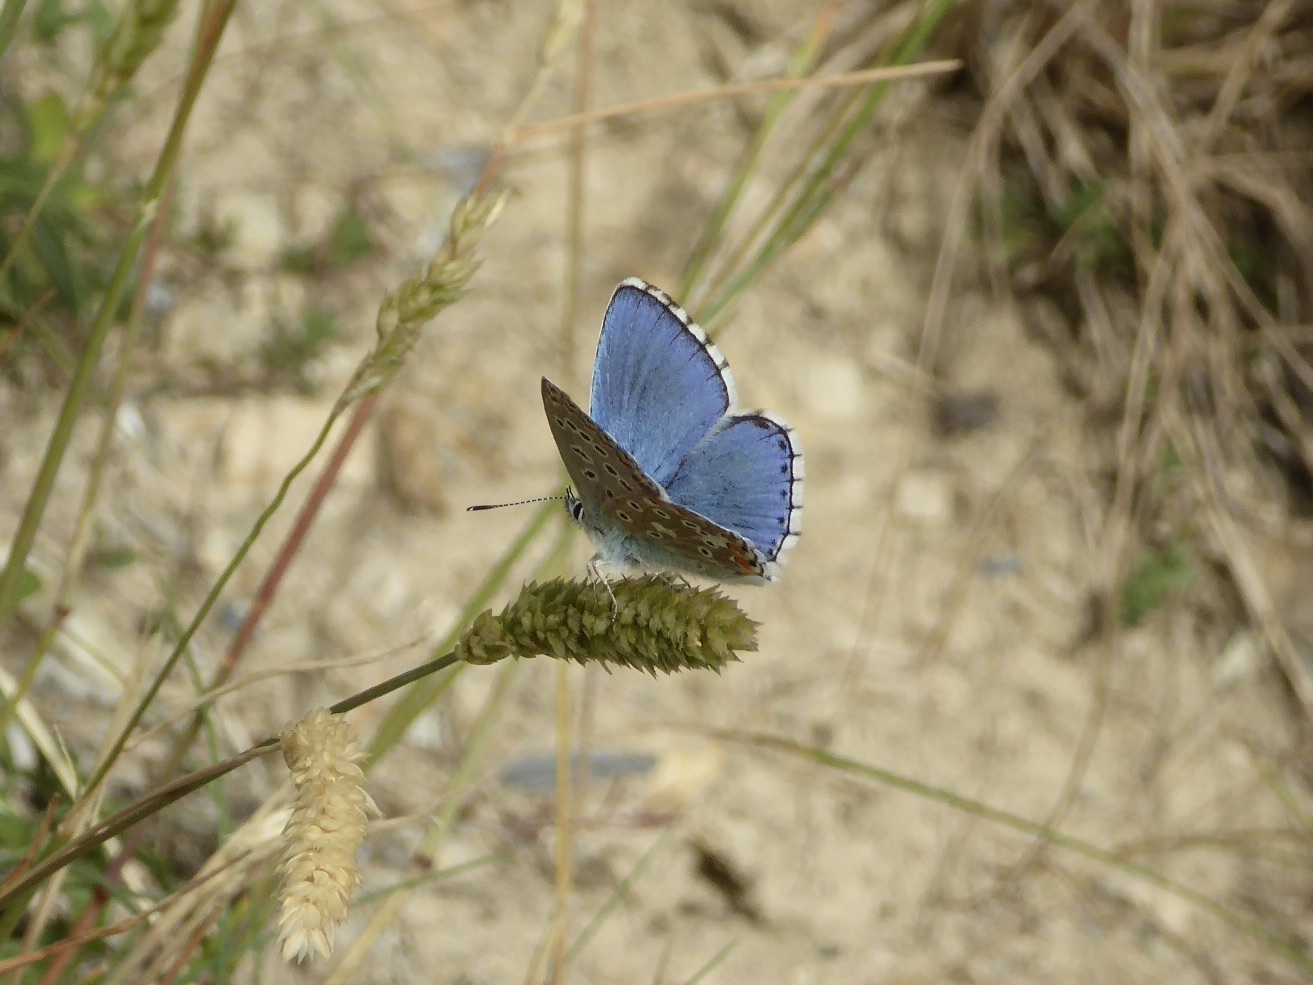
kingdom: Animalia
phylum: Arthropoda
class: Insecta
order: Lepidoptera
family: Lycaenidae
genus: Lysandra
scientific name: Lysandra bellargus
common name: Adonis blue
